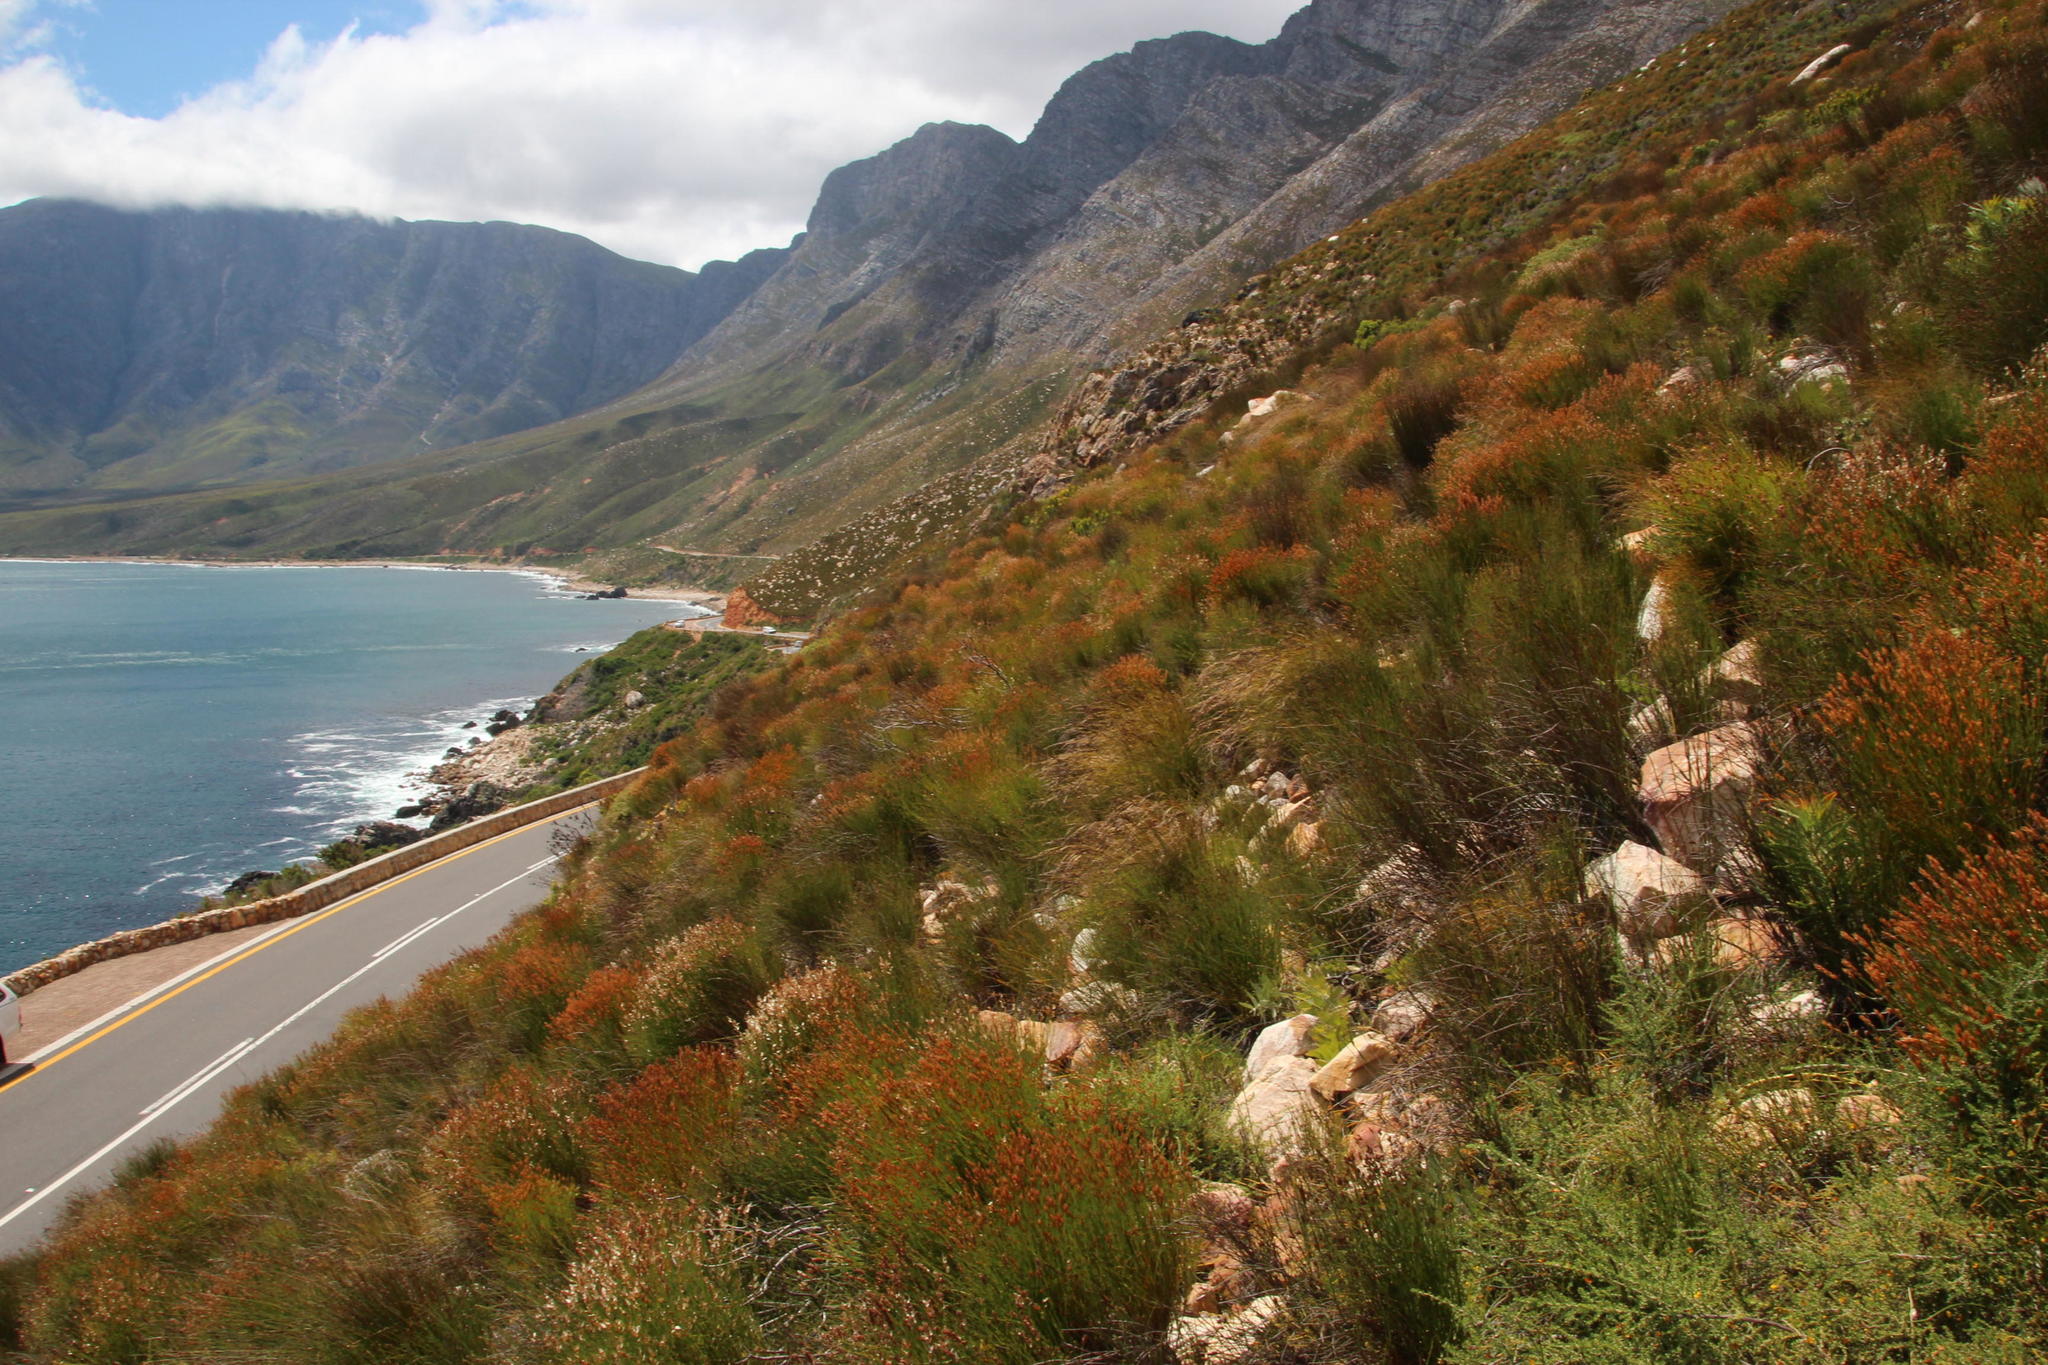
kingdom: Plantae
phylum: Tracheophyta
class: Liliopsida
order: Poales
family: Restionaceae
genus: Elegia
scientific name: Elegia stipularis
